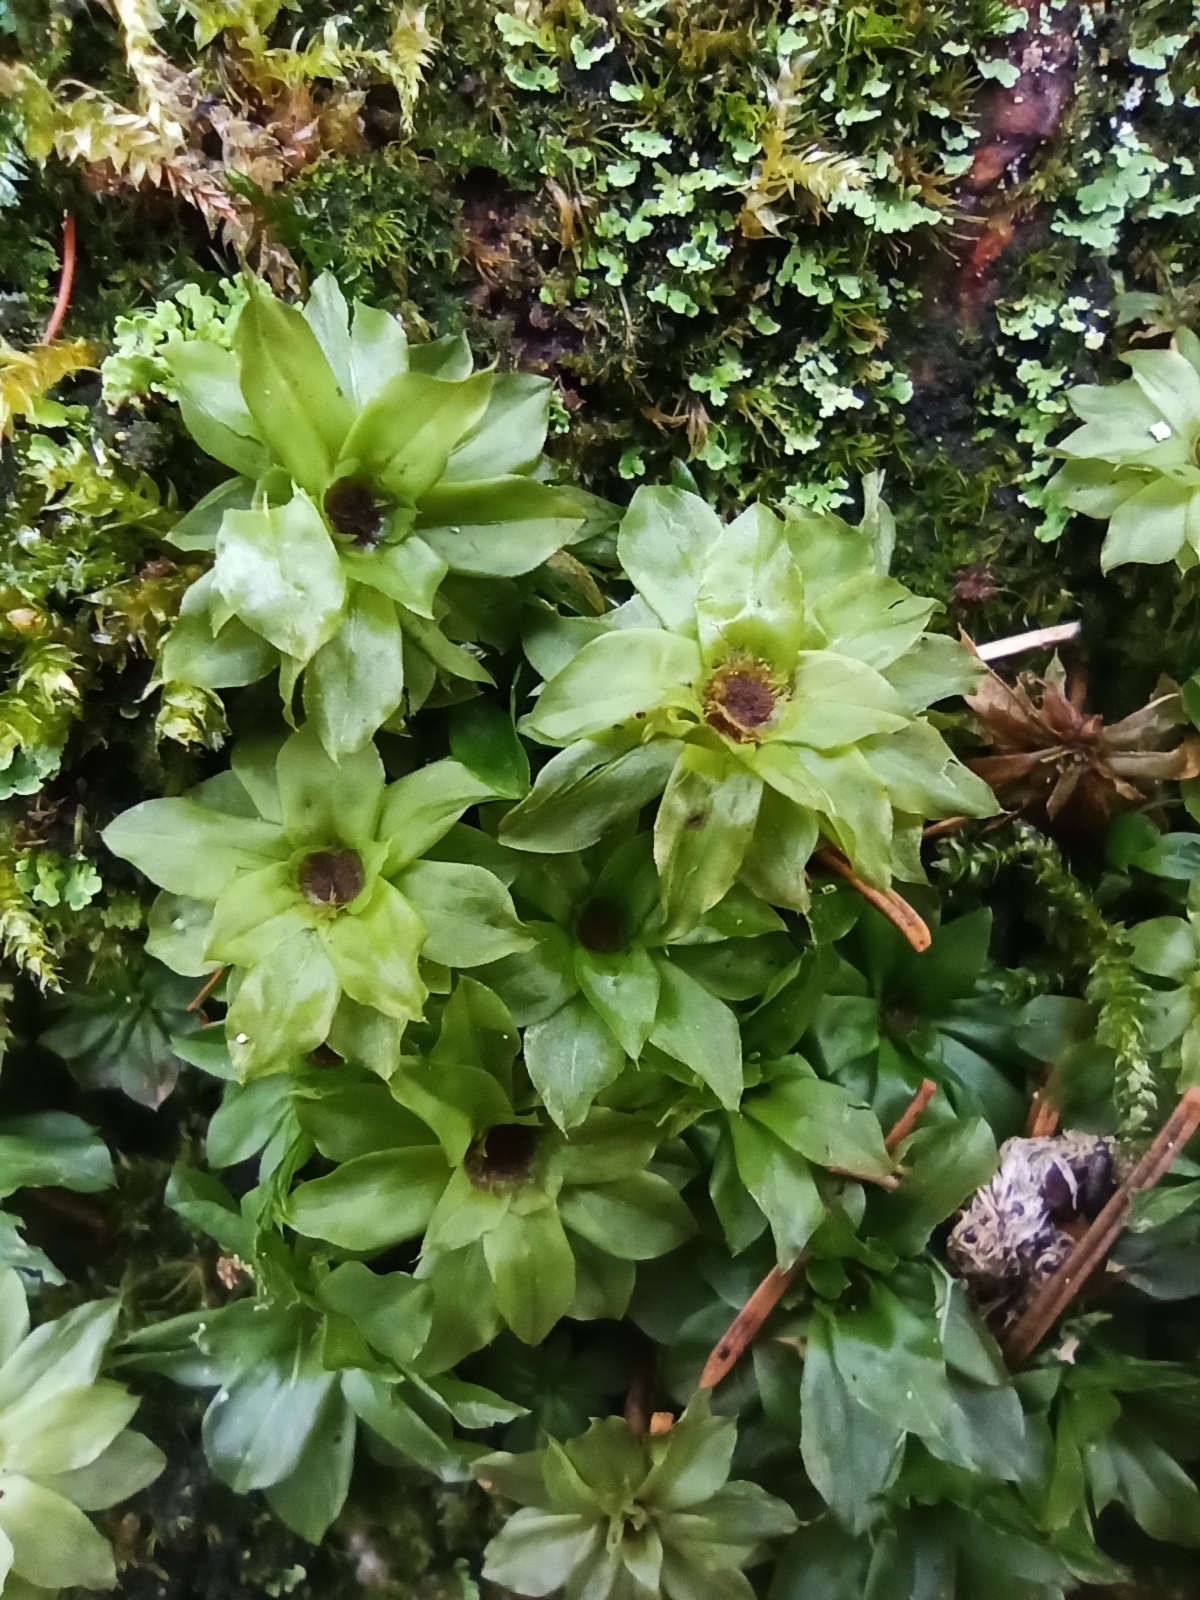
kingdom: Plantae
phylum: Bryophyta
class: Bryopsida
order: Bryales
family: Bryaceae
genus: Rhodobryum
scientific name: Rhodobryum roseum
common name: Rose-moss
